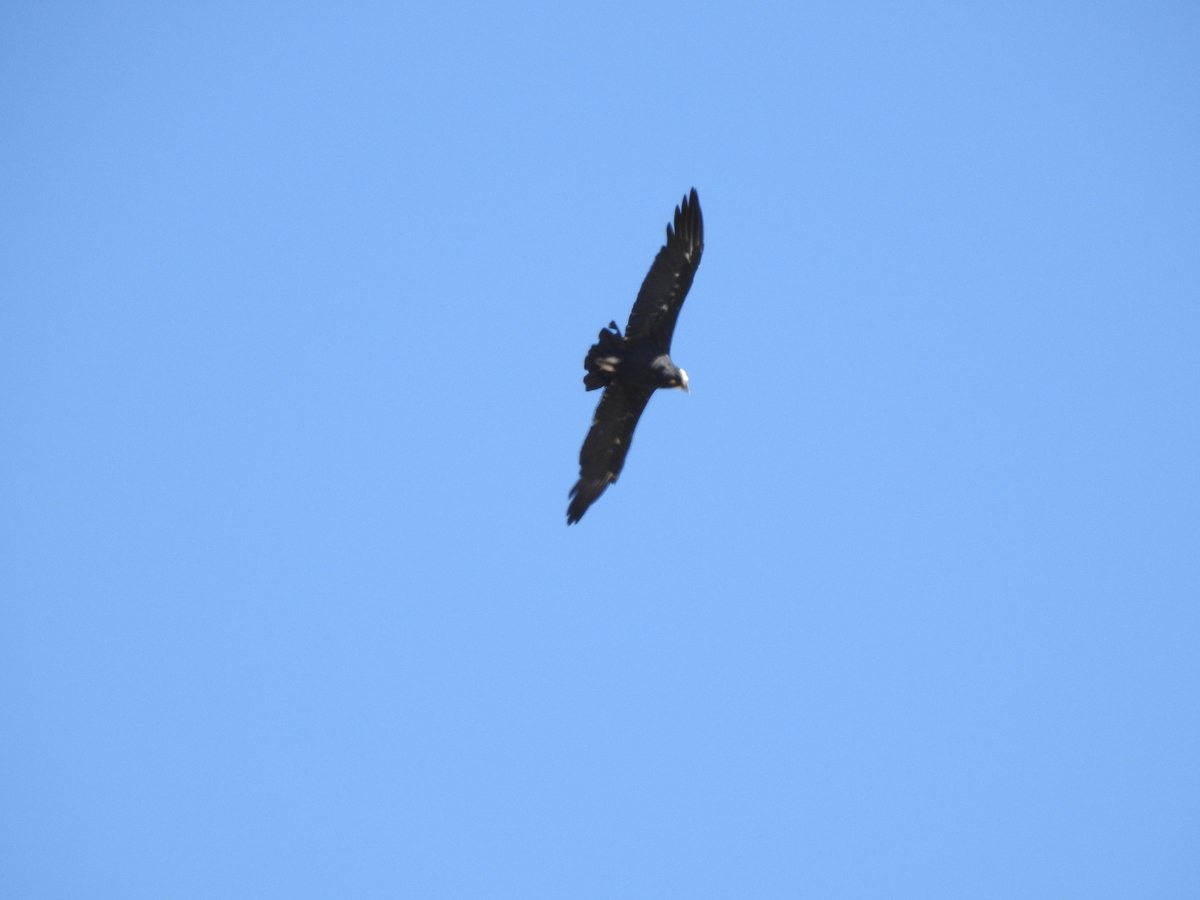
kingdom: Animalia
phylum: Chordata
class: Aves
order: Accipitriformes
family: Cathartidae
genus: Vultur
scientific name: Vultur gryphus
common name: Andean condor
